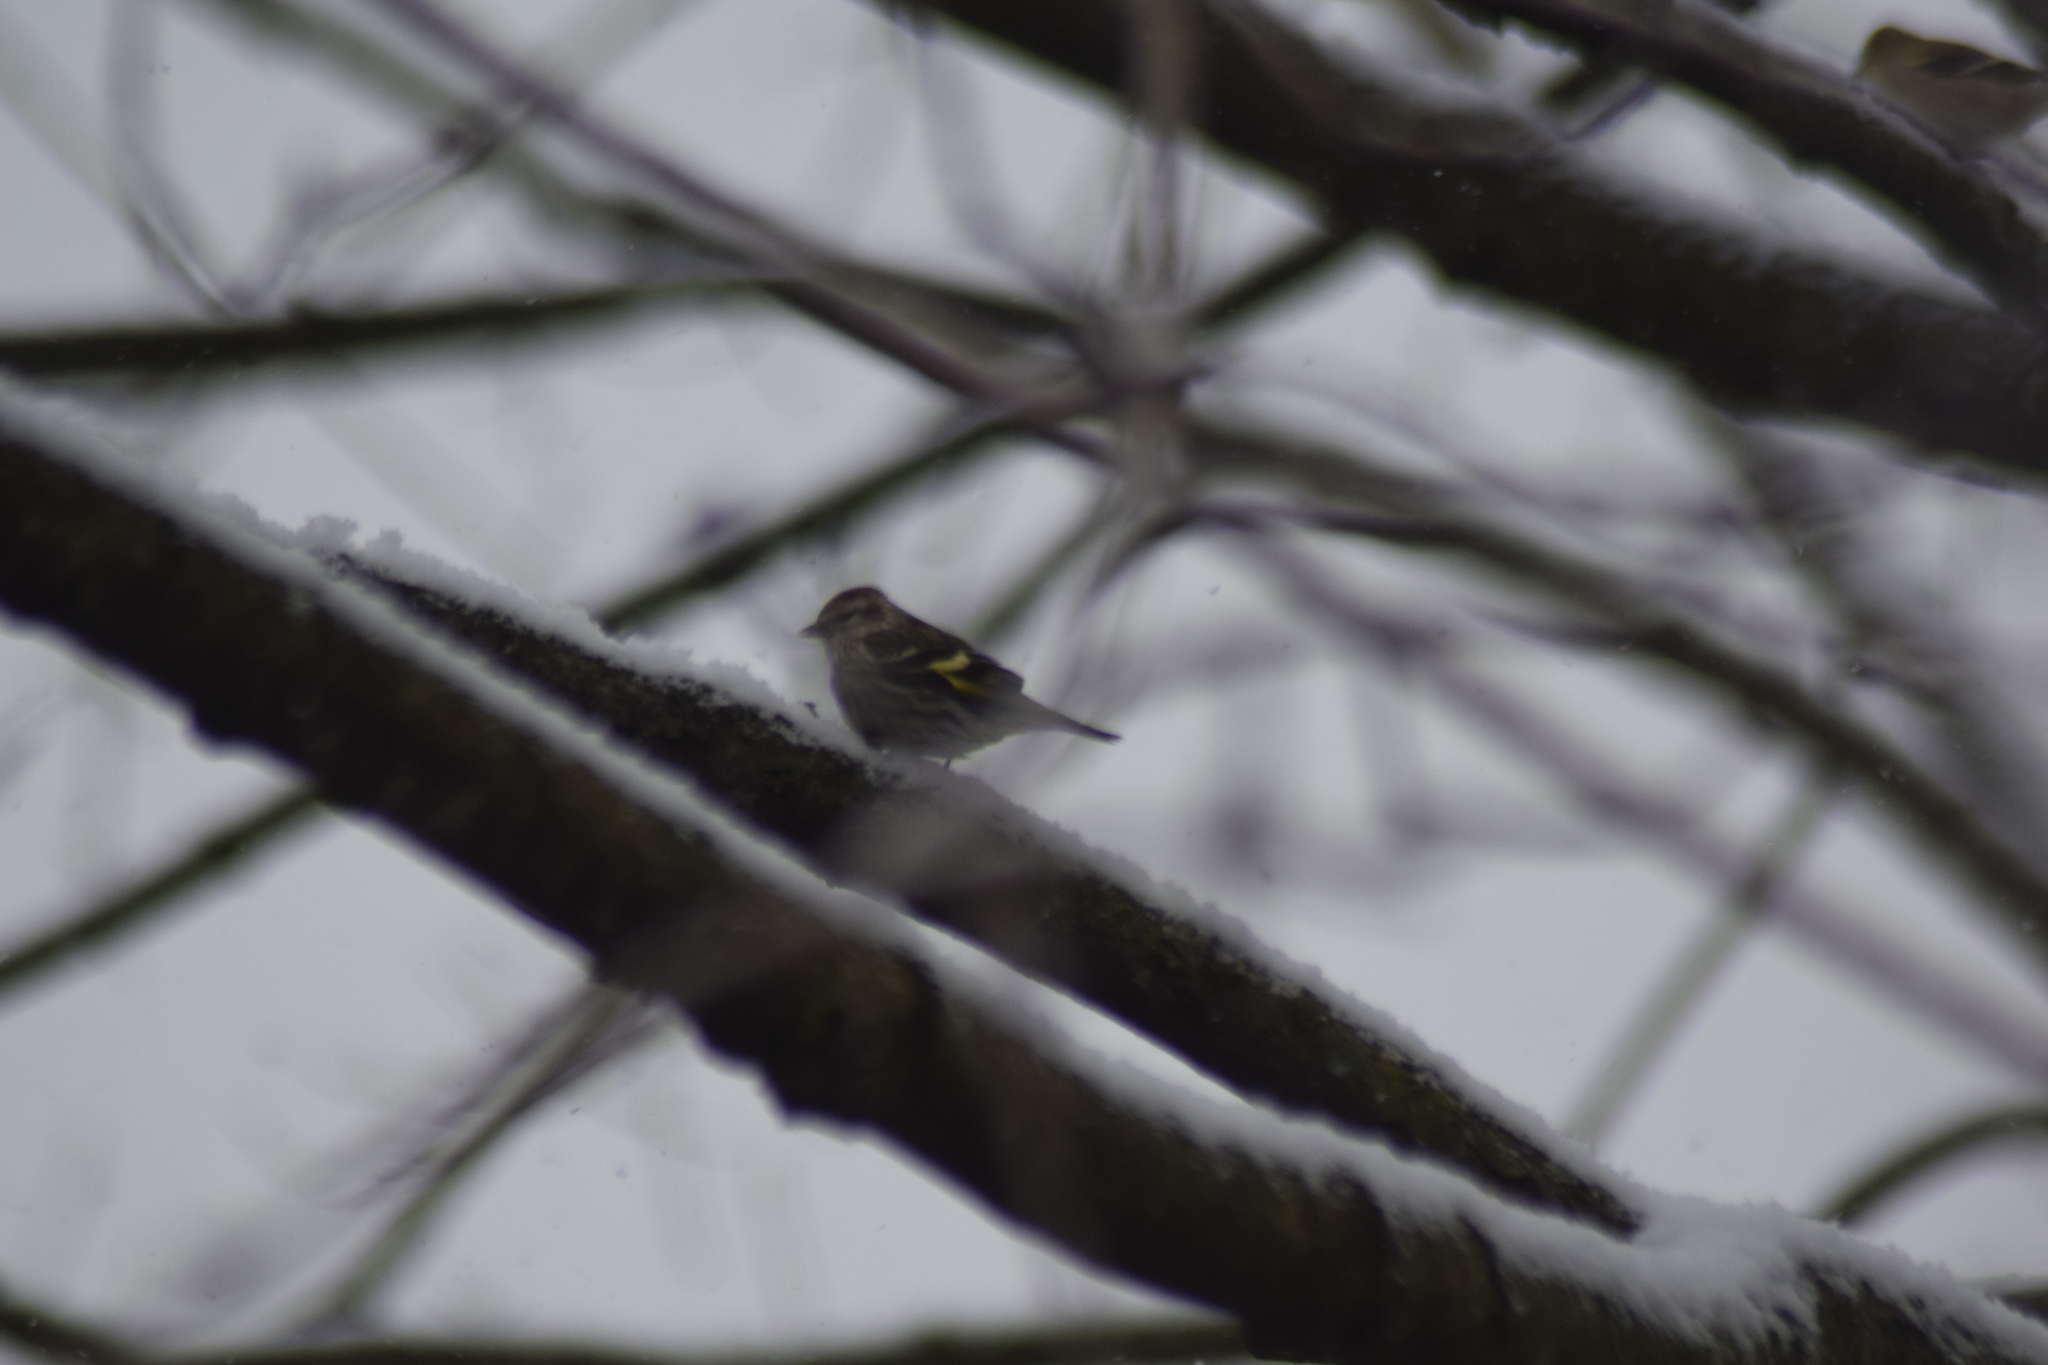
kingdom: Animalia
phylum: Chordata
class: Aves
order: Passeriformes
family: Fringillidae
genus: Spinus
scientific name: Spinus pinus
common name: Pine siskin
